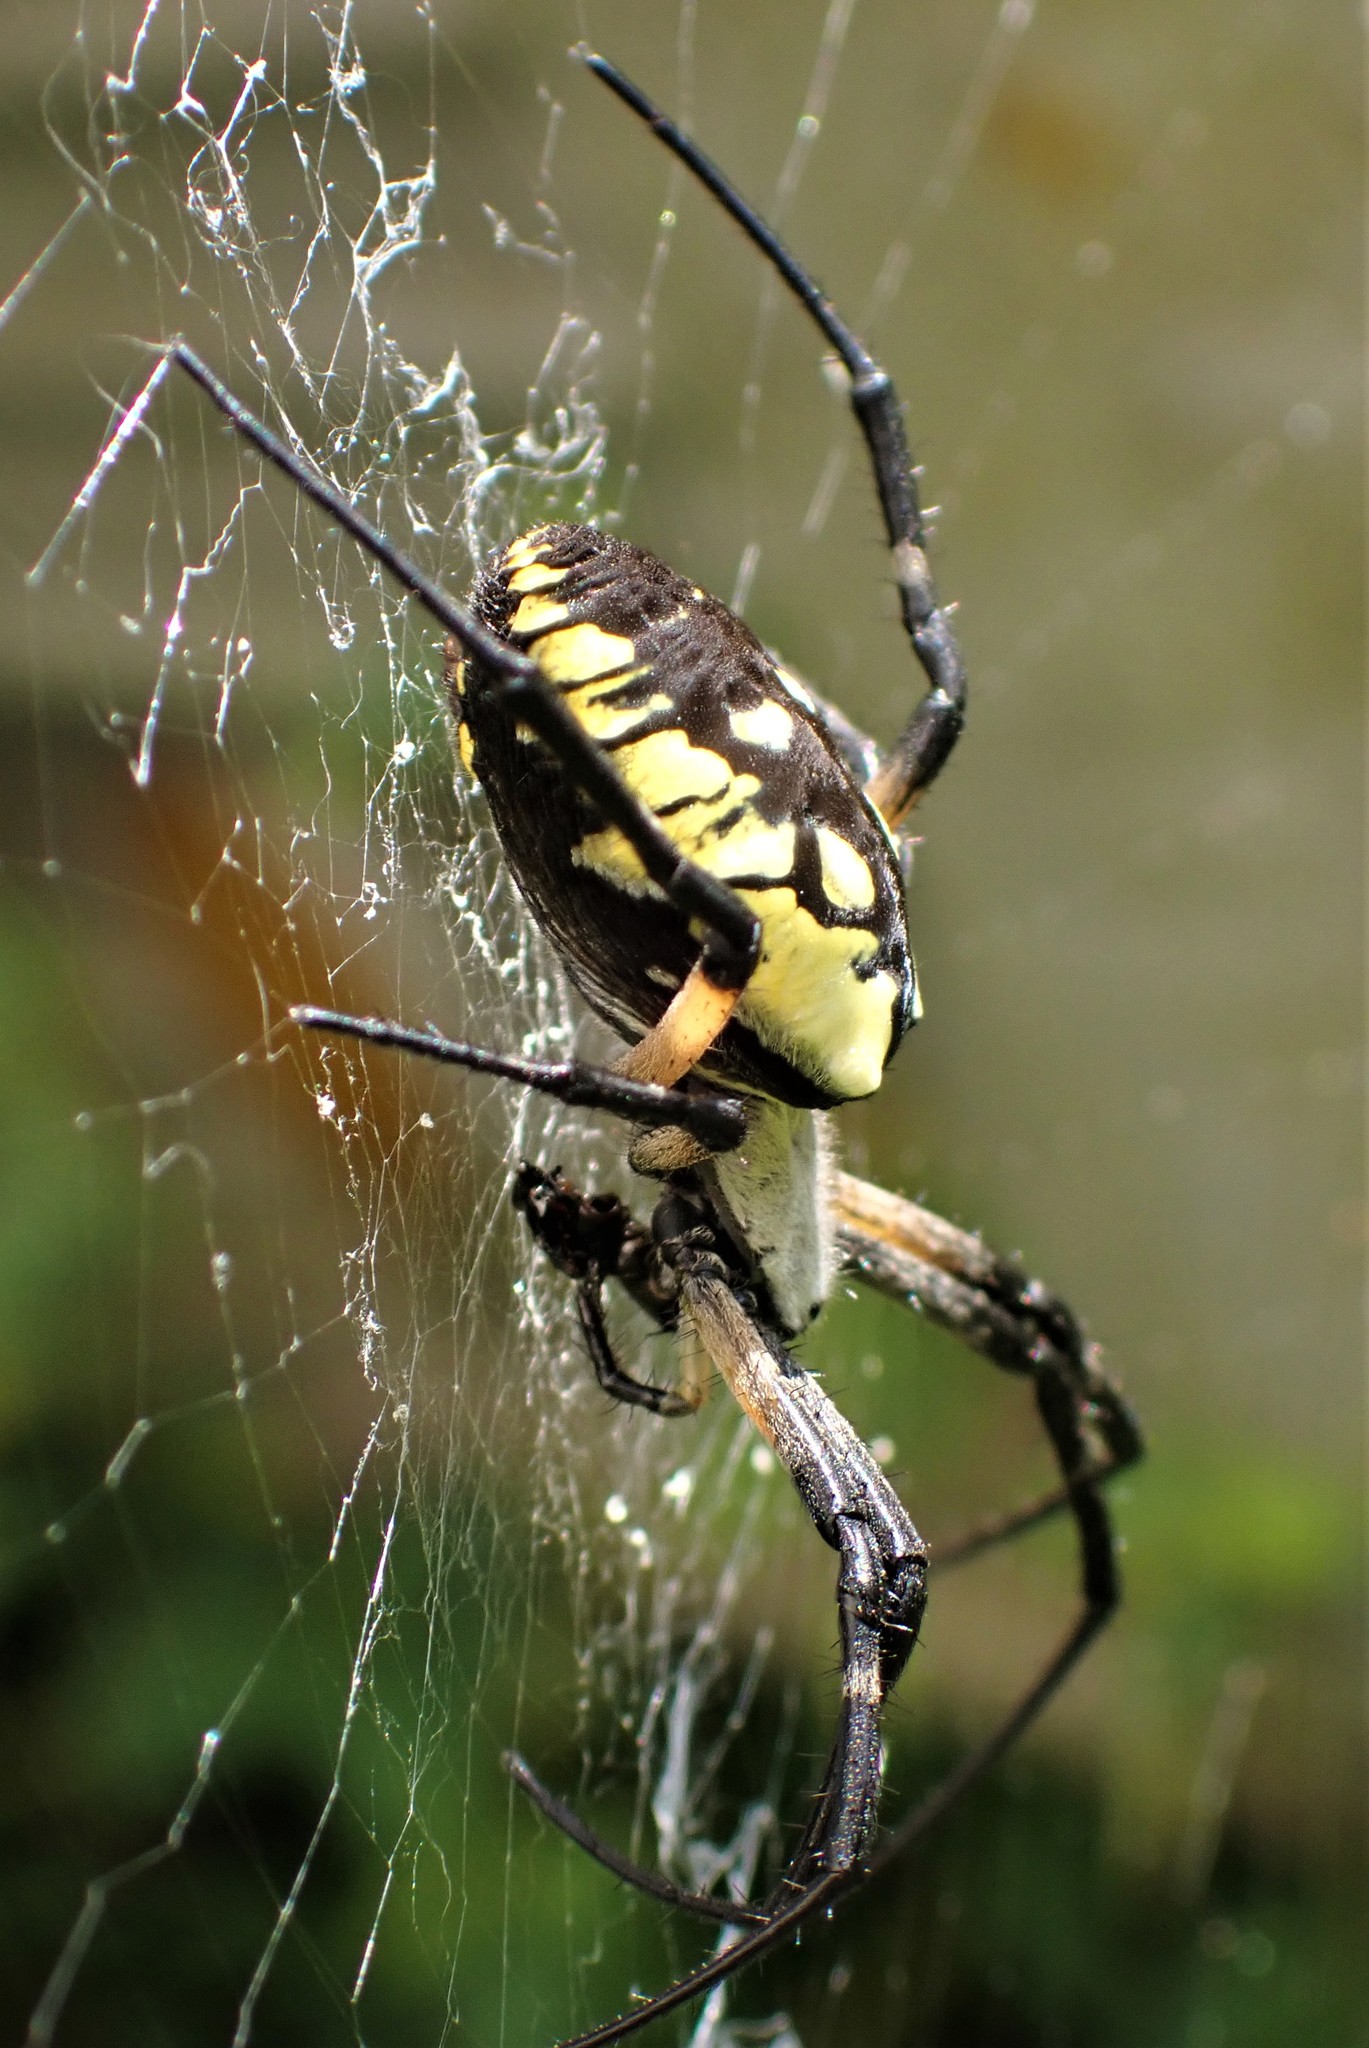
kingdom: Animalia
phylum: Arthropoda
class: Arachnida
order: Araneae
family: Araneidae
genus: Argiope
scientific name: Argiope aurantia
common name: Orb weavers
